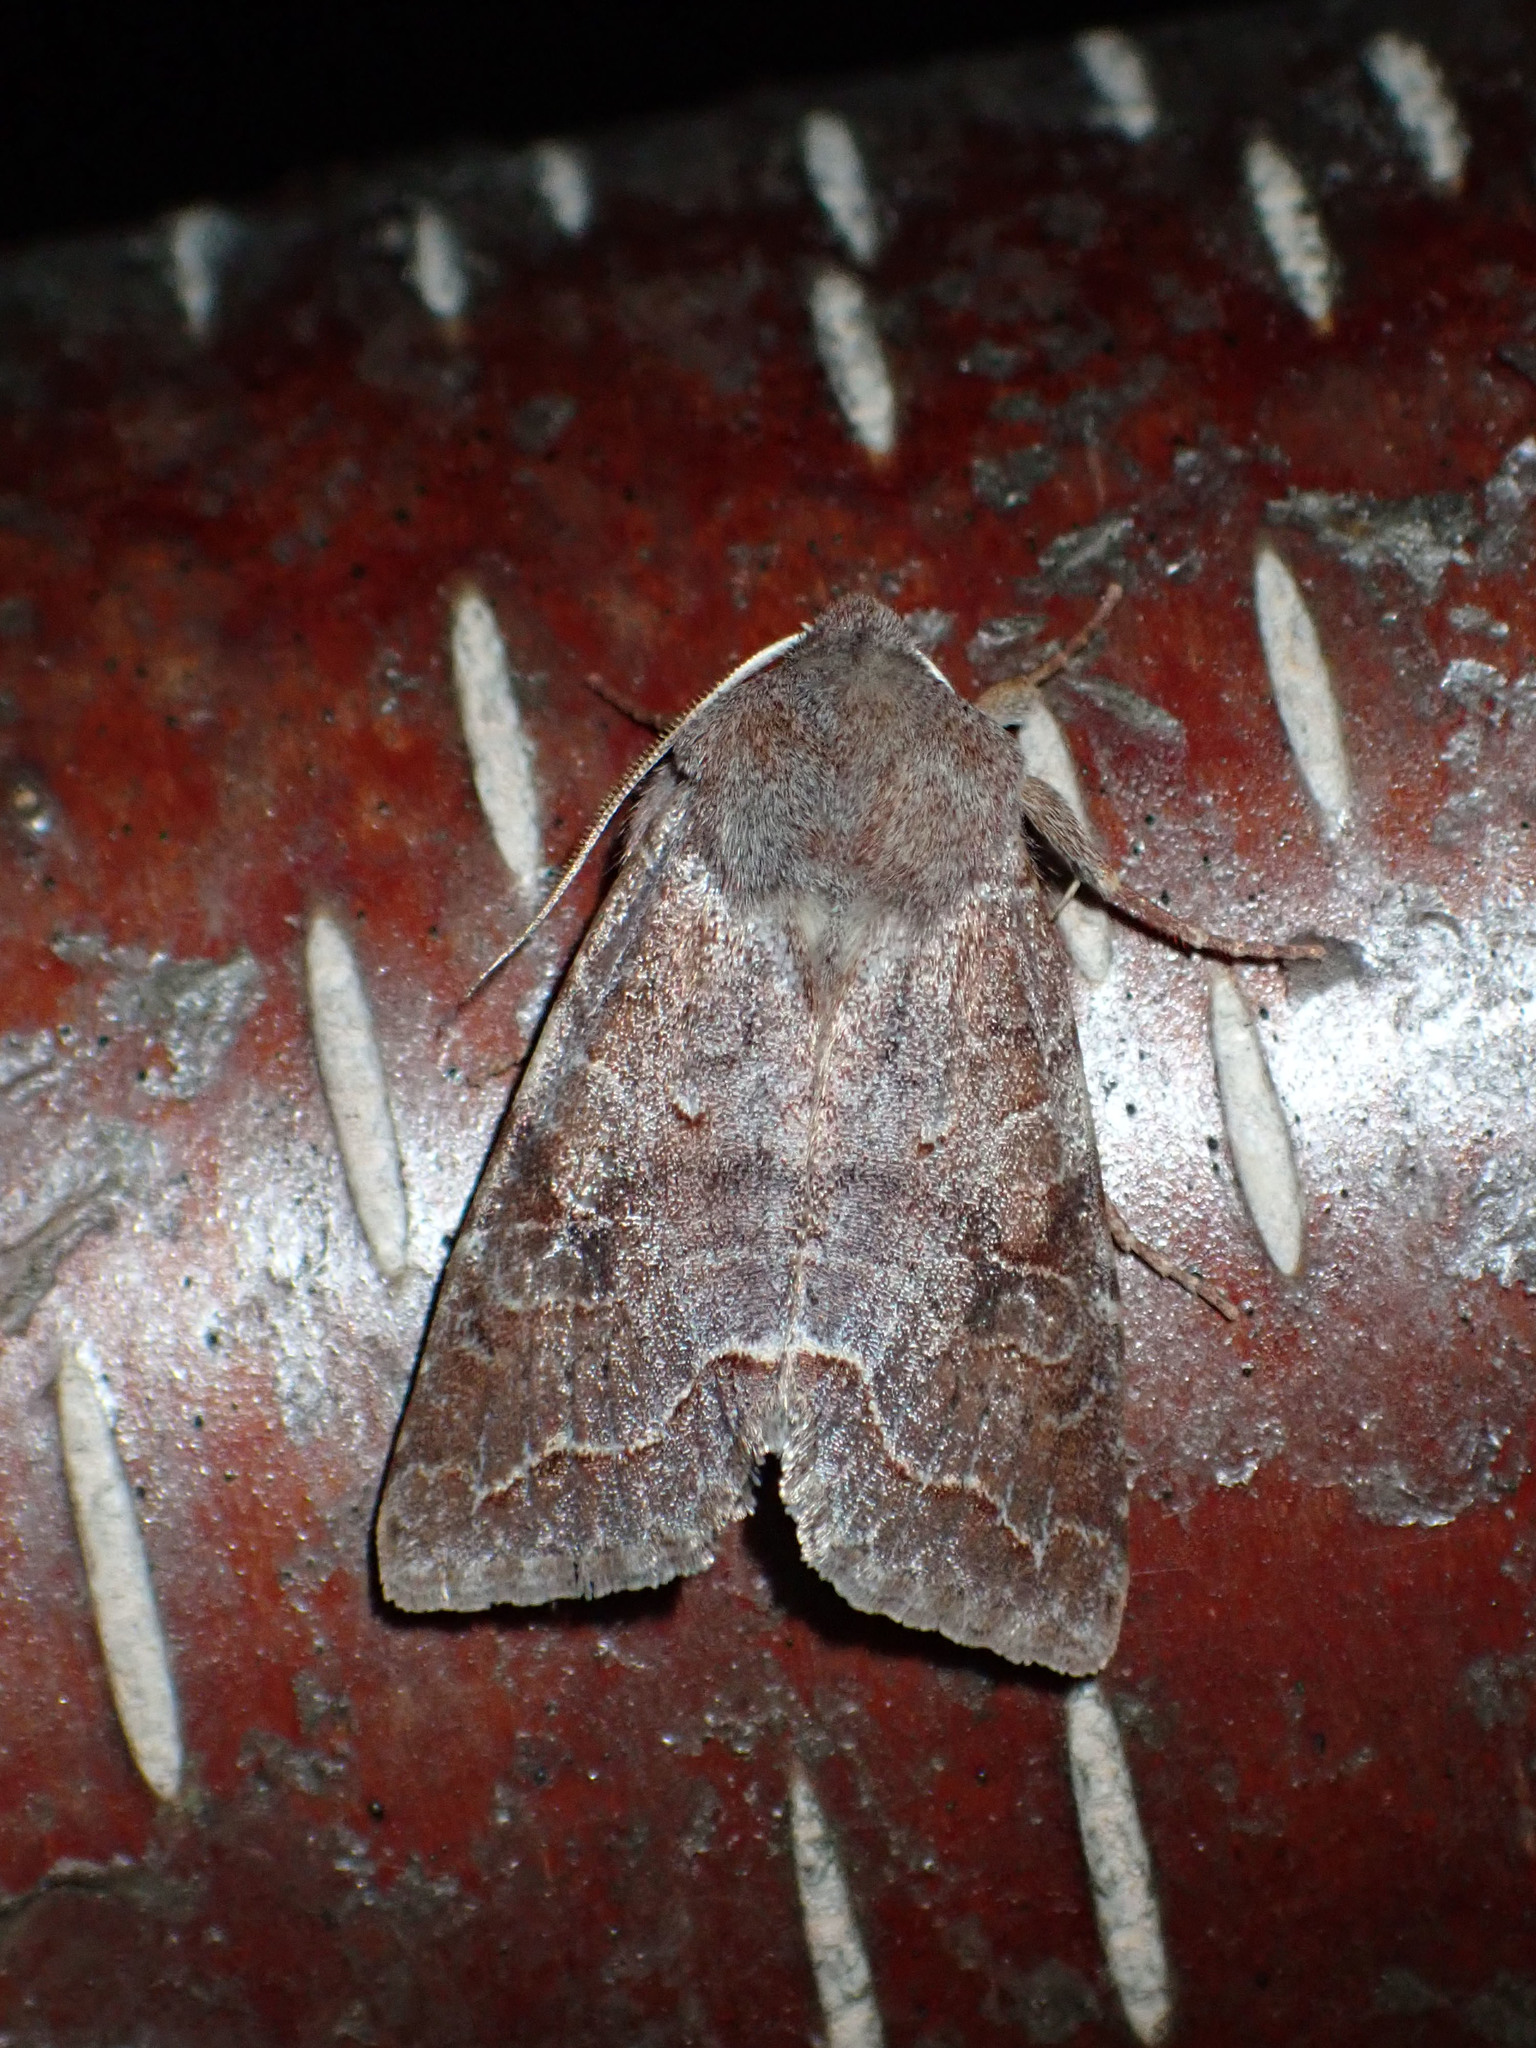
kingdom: Animalia
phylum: Arthropoda
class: Insecta
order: Lepidoptera
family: Noctuidae
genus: Orthosia
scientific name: Orthosia revicta
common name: Rusty whitesided caterpillar
